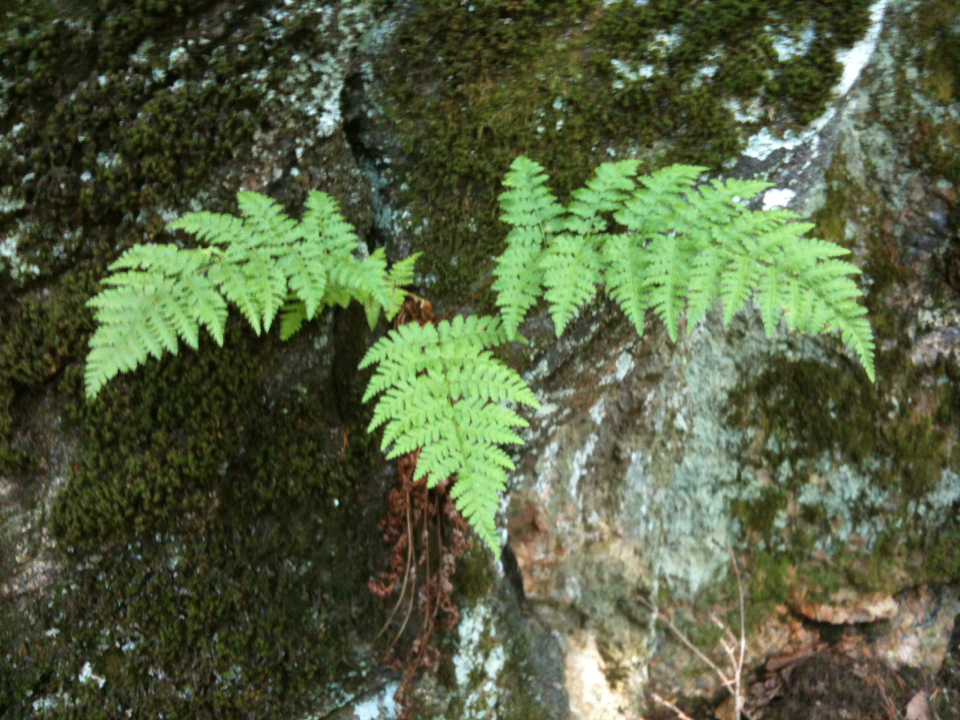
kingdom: Plantae
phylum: Tracheophyta
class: Polypodiopsida
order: Polypodiales
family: Dryopteridaceae
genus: Dryopteris
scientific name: Dryopteris intermedia
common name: Evergreen wood fern
